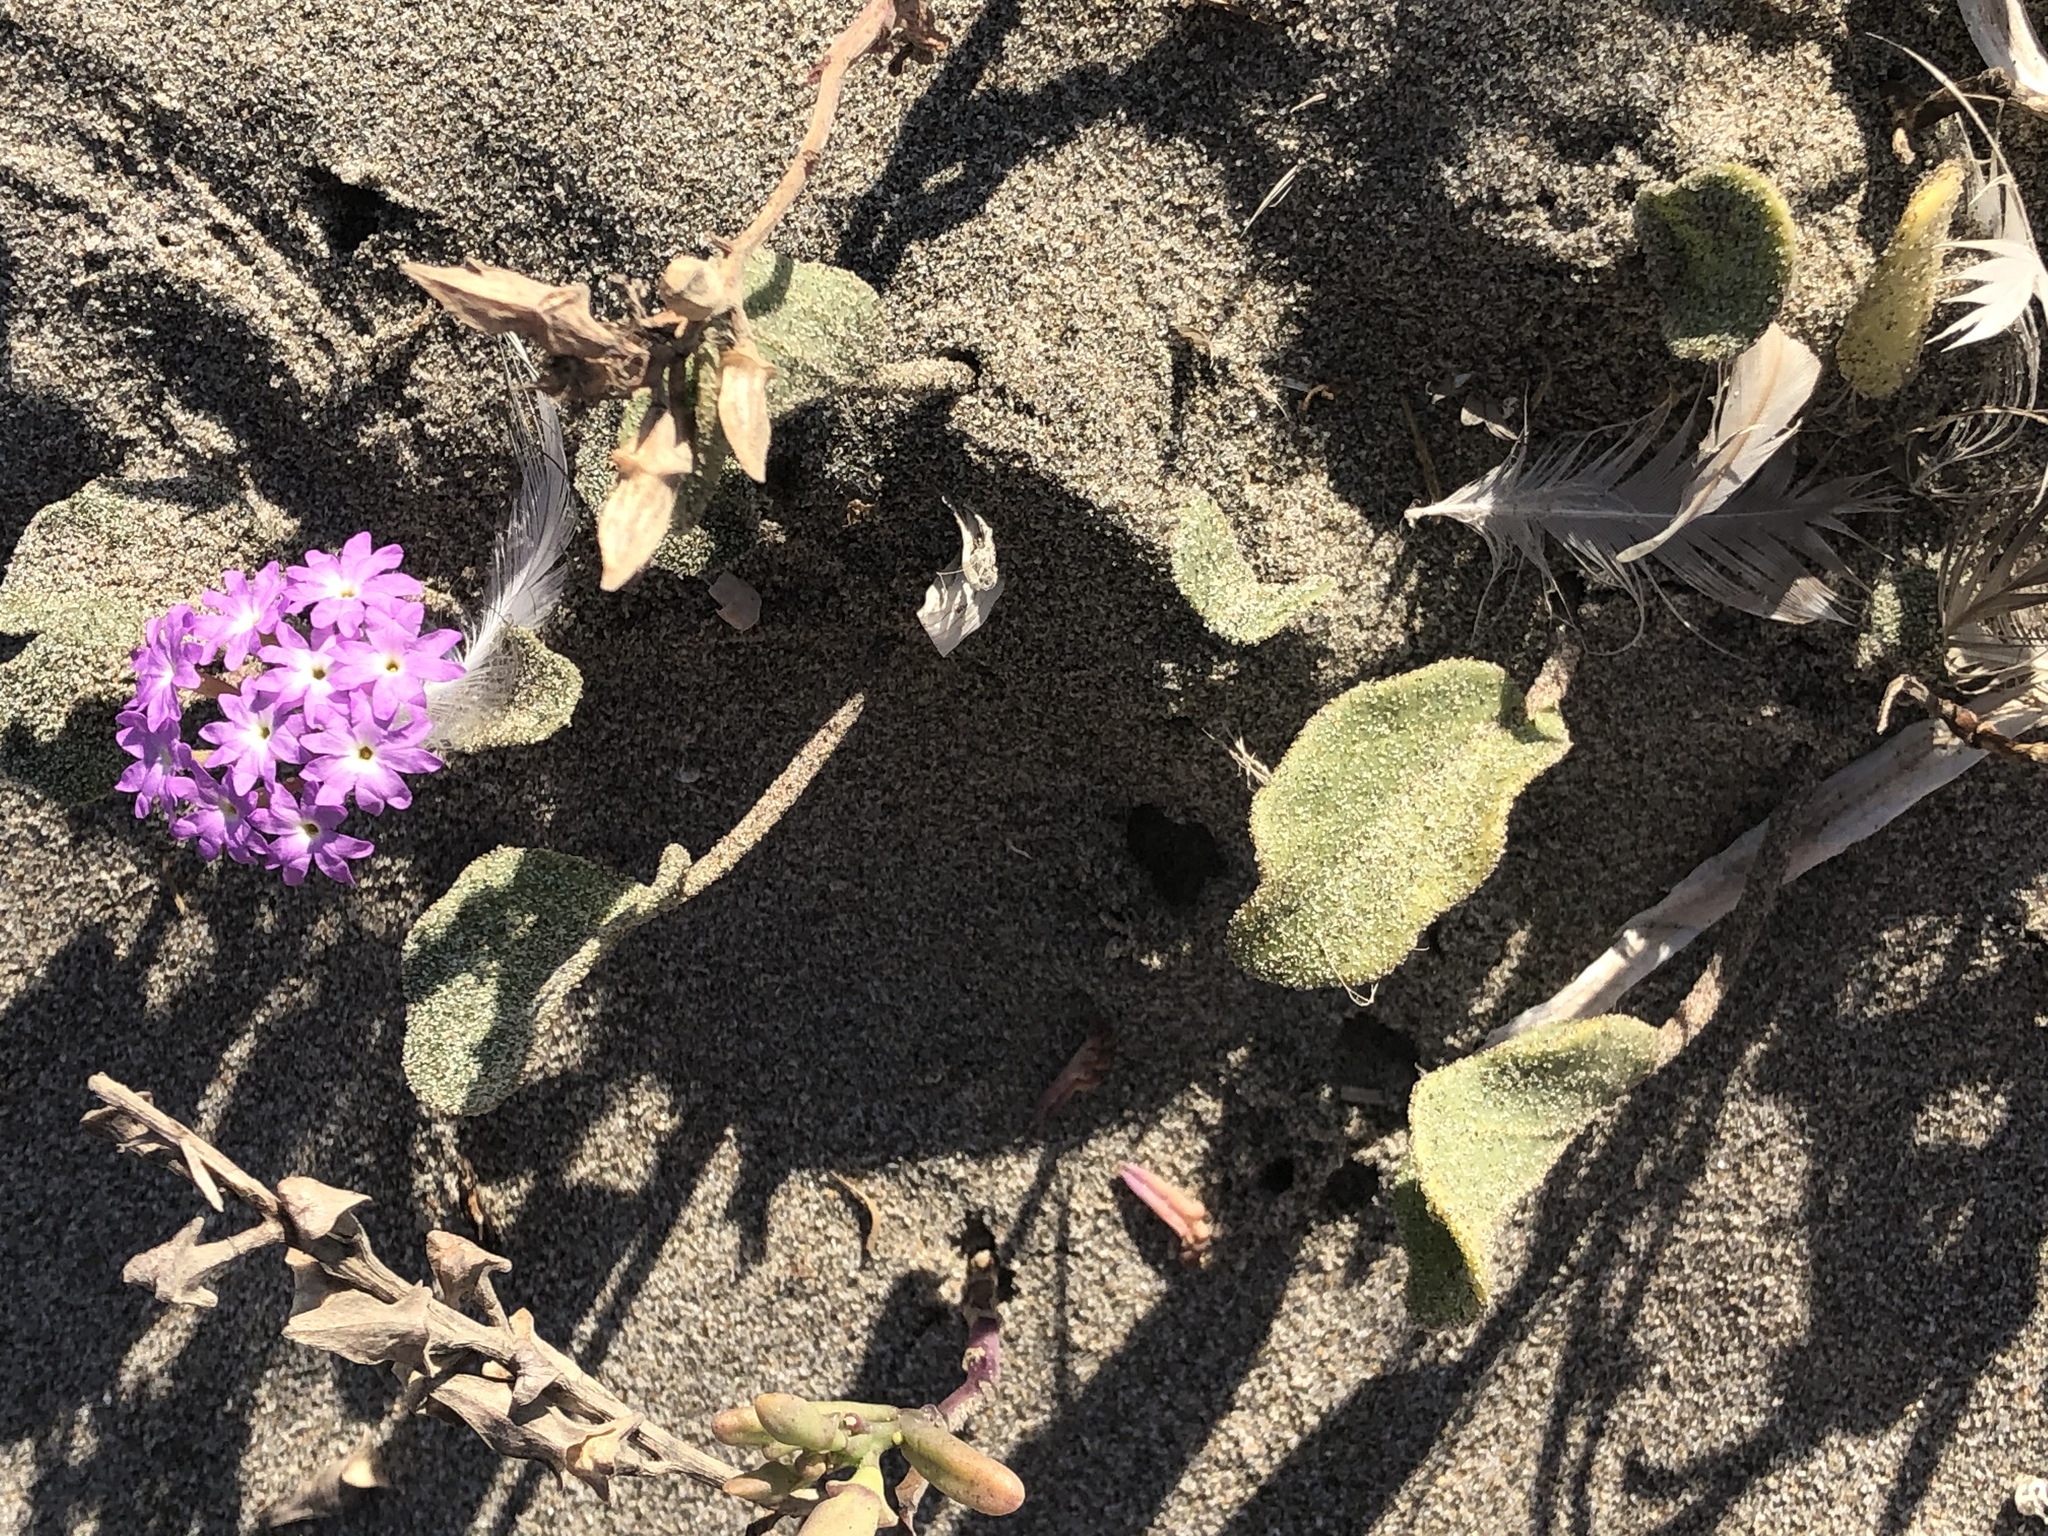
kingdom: Plantae
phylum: Tracheophyta
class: Magnoliopsida
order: Caryophyllales
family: Nyctaginaceae
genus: Abronia
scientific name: Abronia umbellata
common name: Sand-verbena
